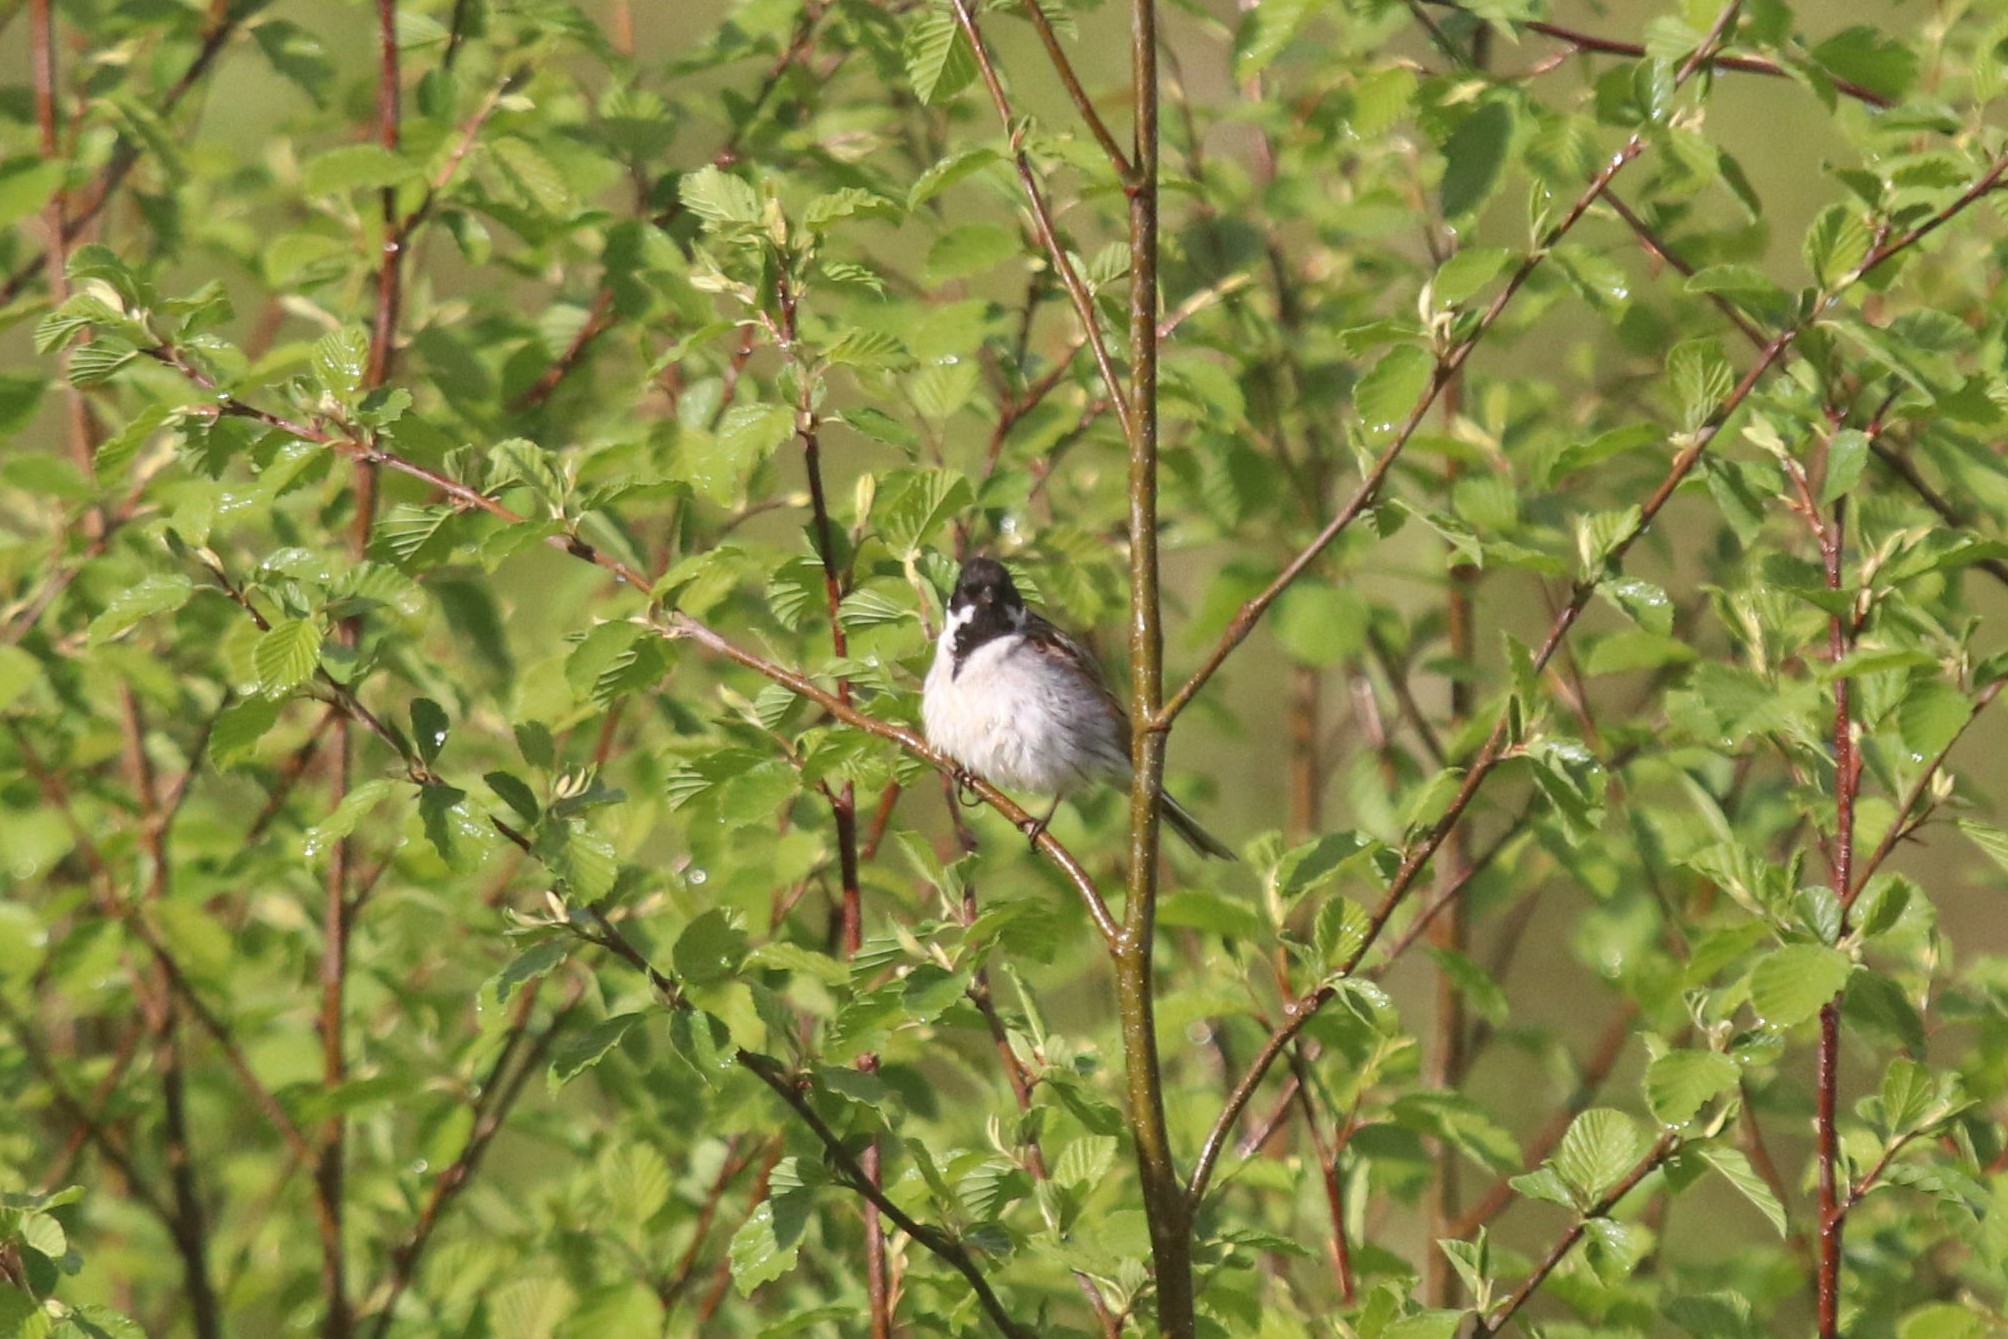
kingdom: Animalia
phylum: Chordata
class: Aves
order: Passeriformes
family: Emberizidae
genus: Emberiza
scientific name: Emberiza schoeniclus
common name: Reed bunting
